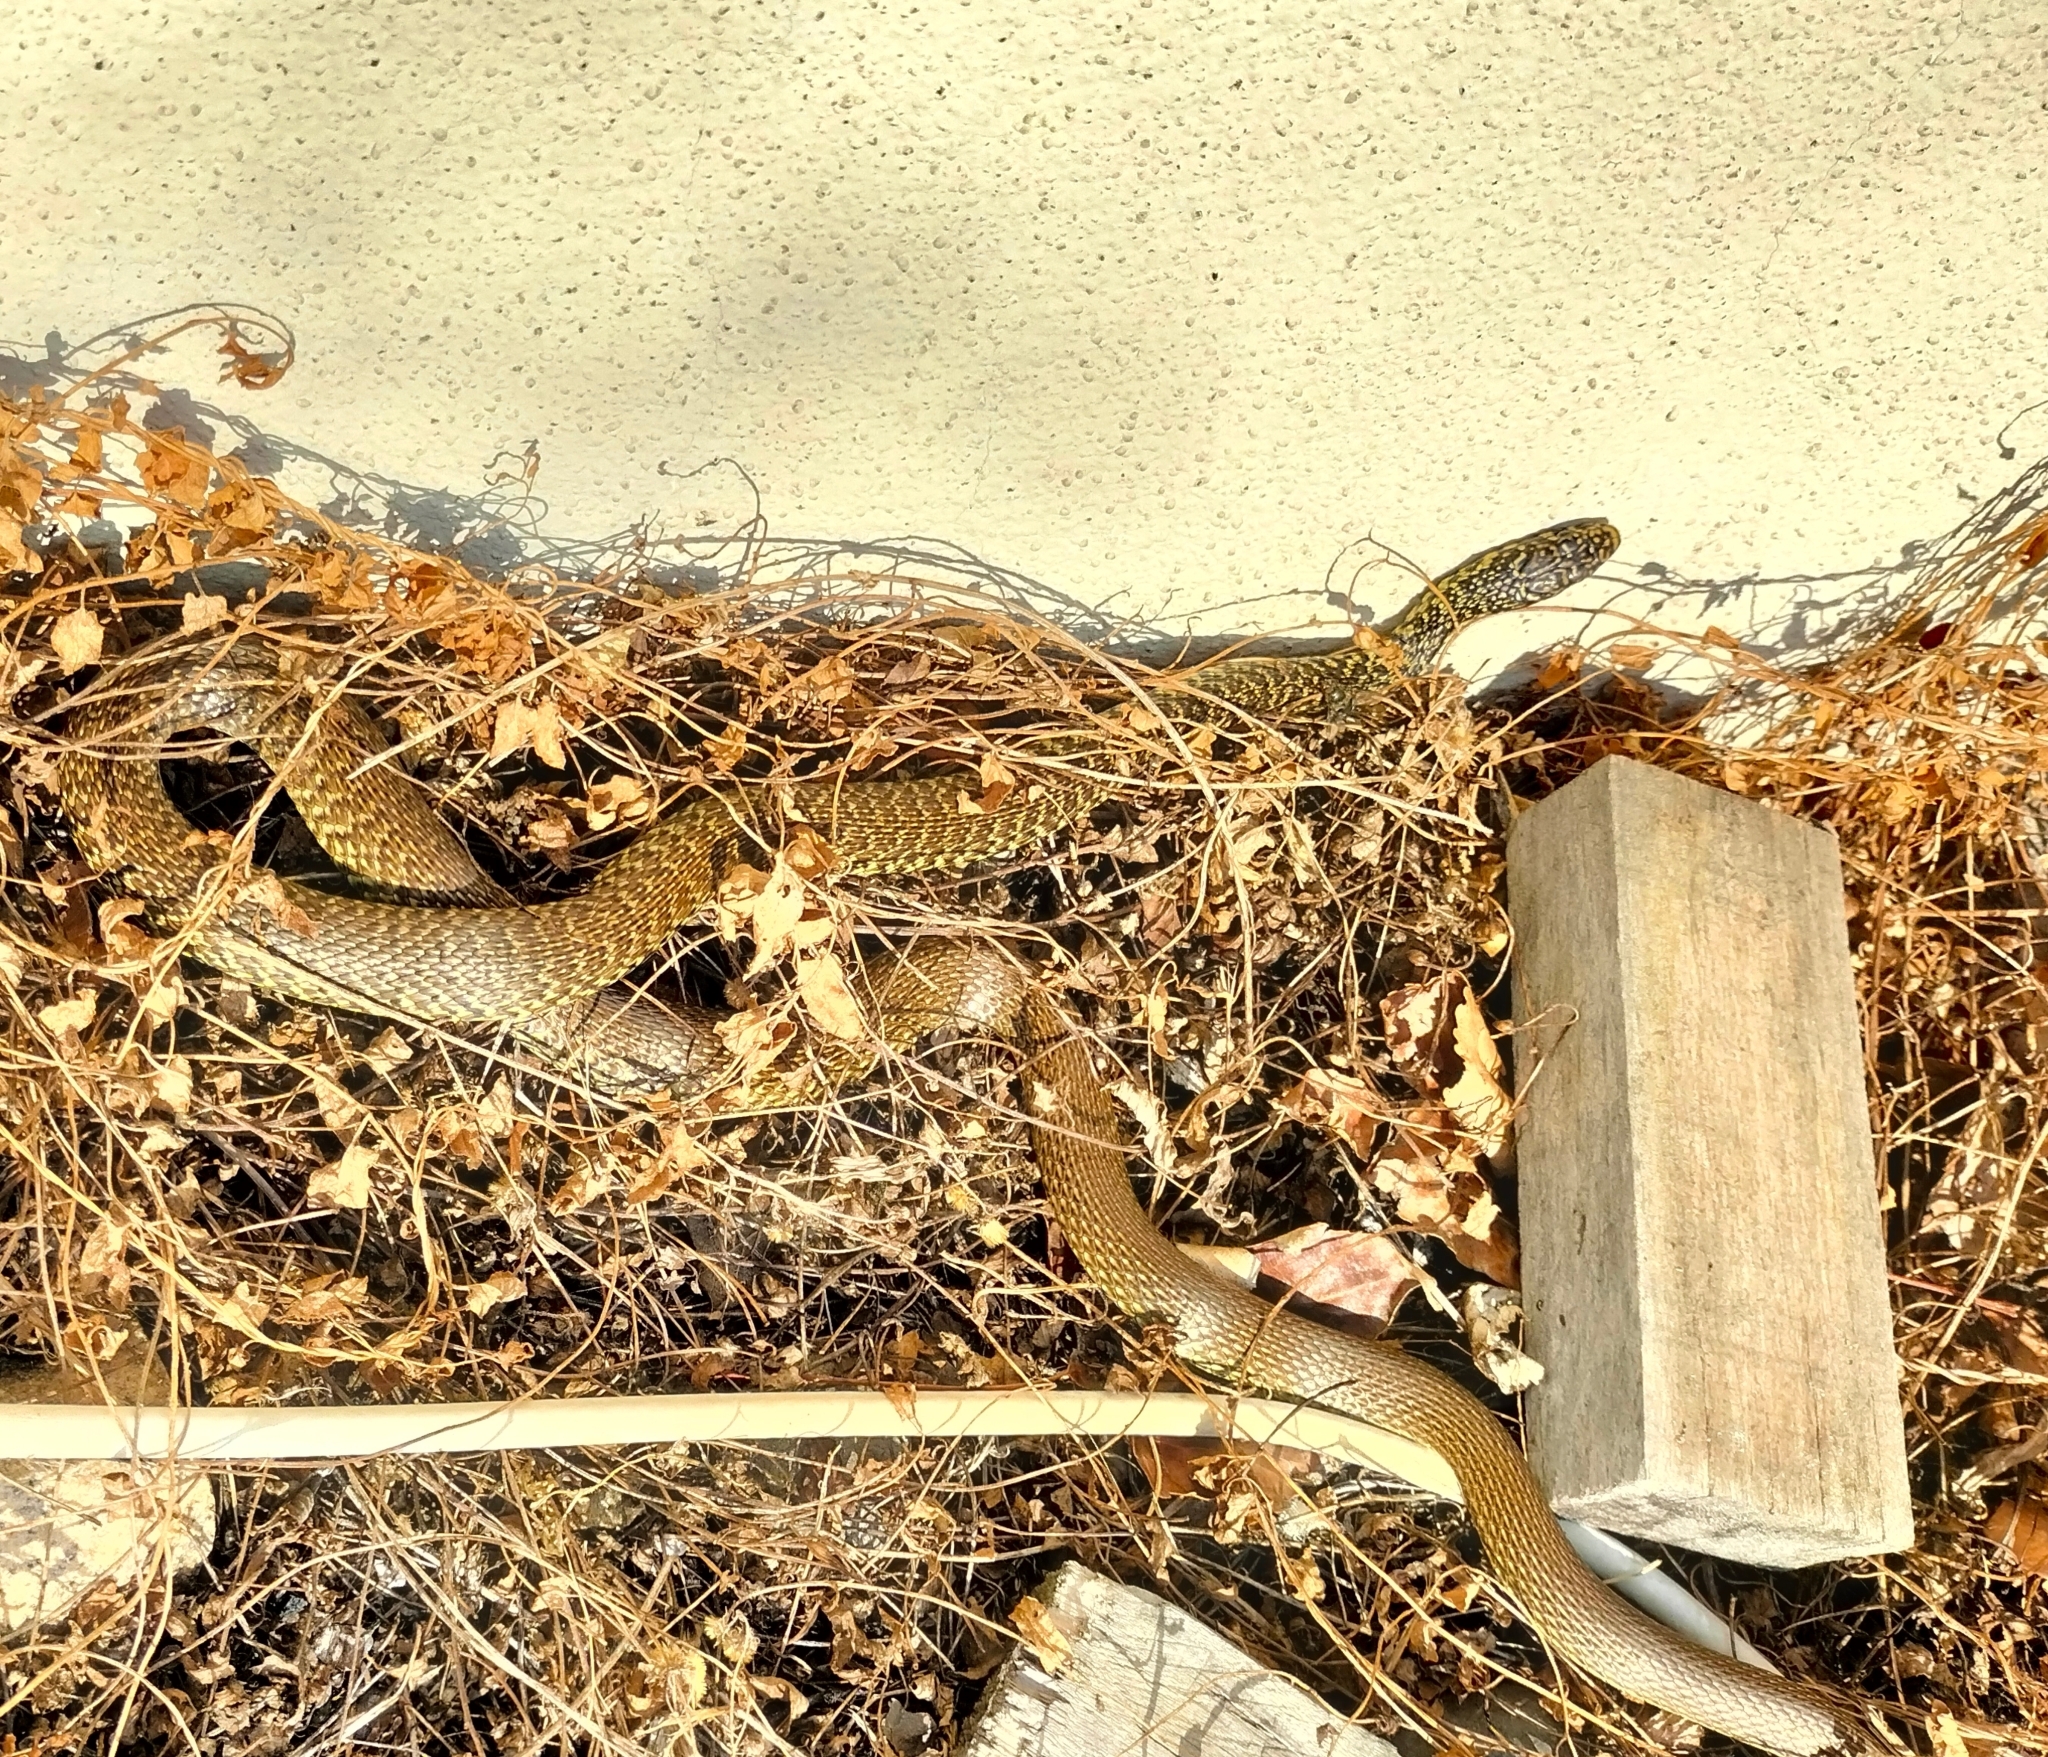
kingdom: Animalia
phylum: Chordata
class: Squamata
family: Colubridae
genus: Hierophis
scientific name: Hierophis viridiflavus
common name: Green whip snake
